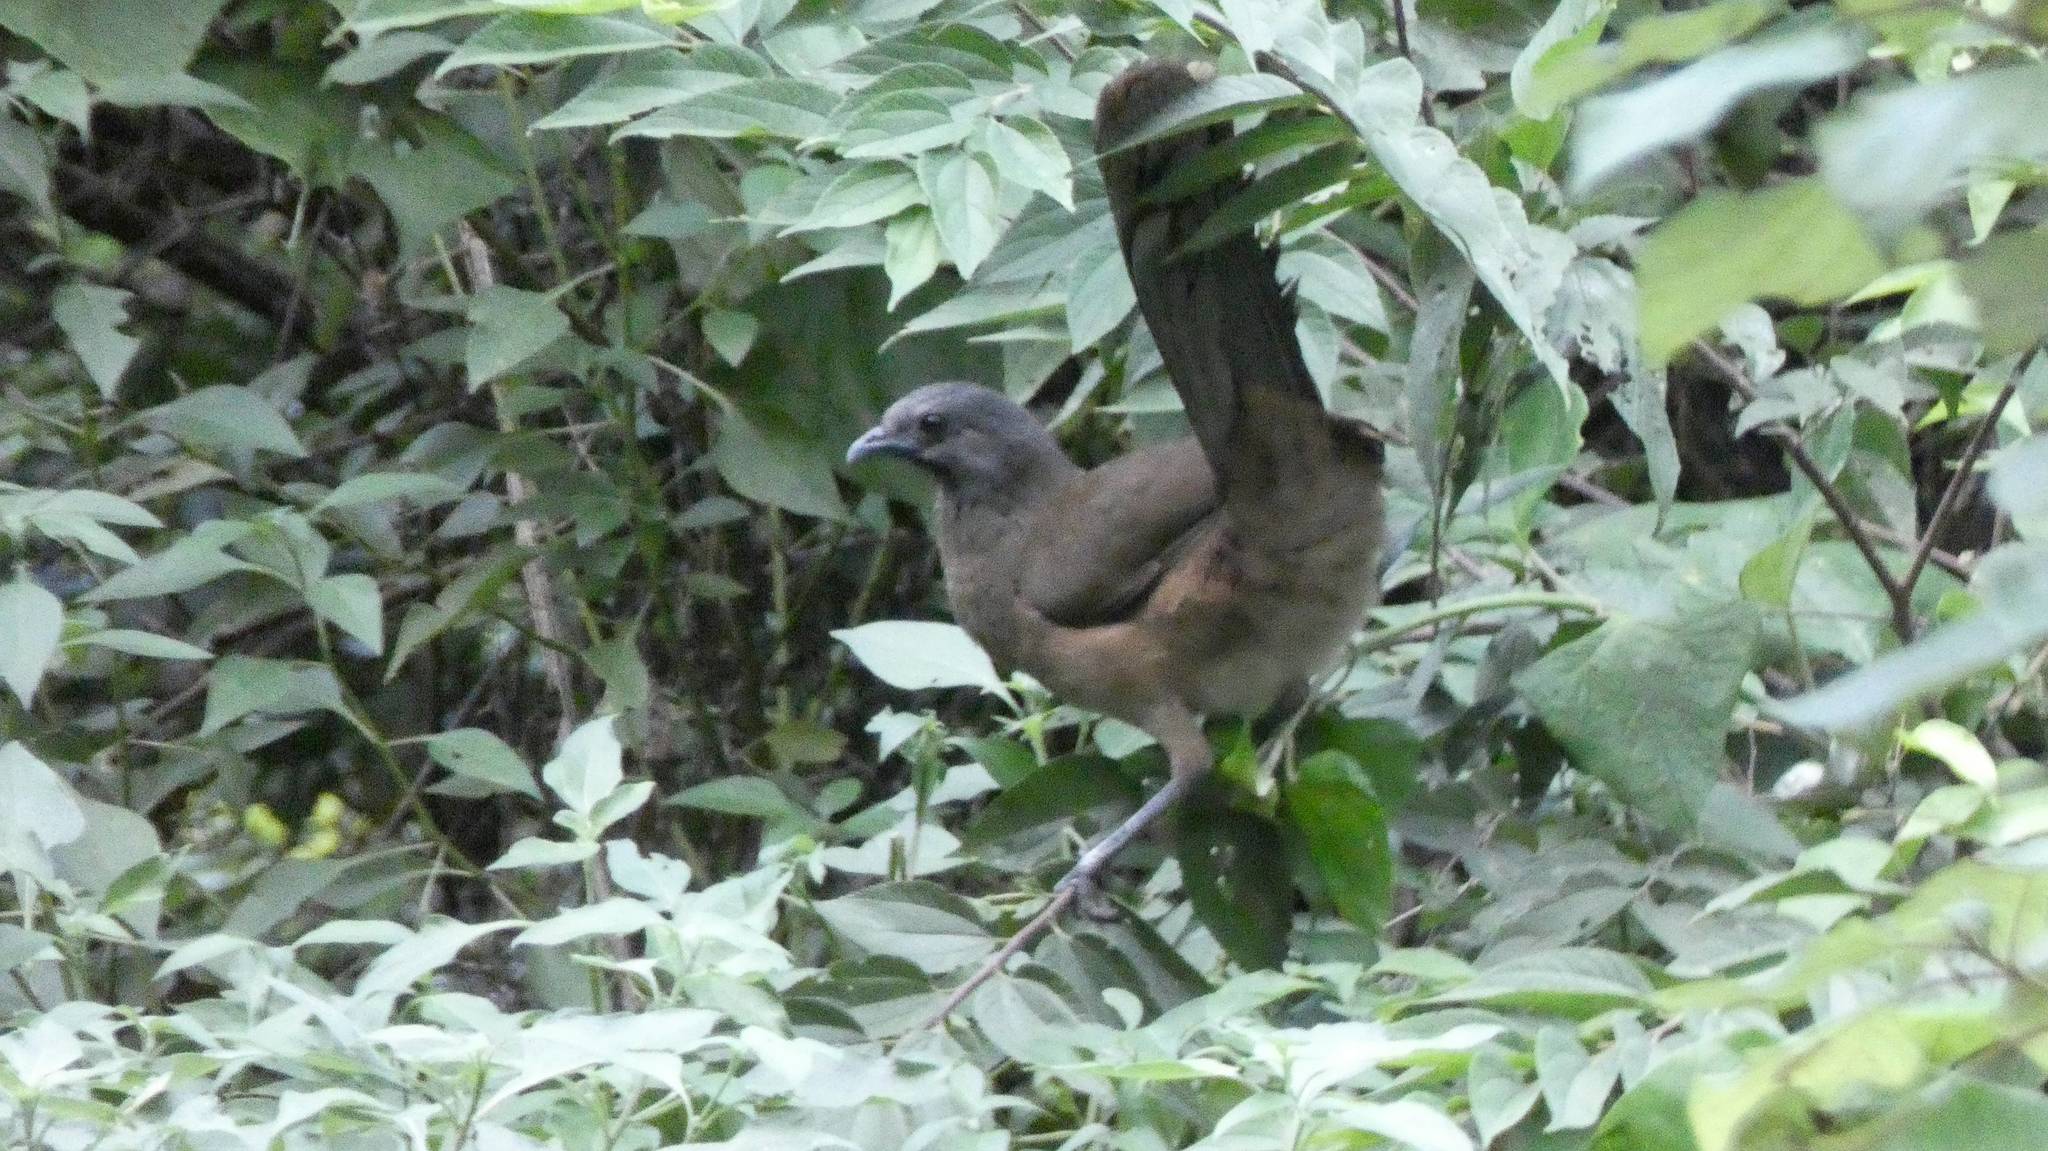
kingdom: Animalia
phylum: Chordata
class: Aves
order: Galliformes
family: Cracidae
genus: Ortalis
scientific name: Ortalis vetula
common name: Plain chachalaca
